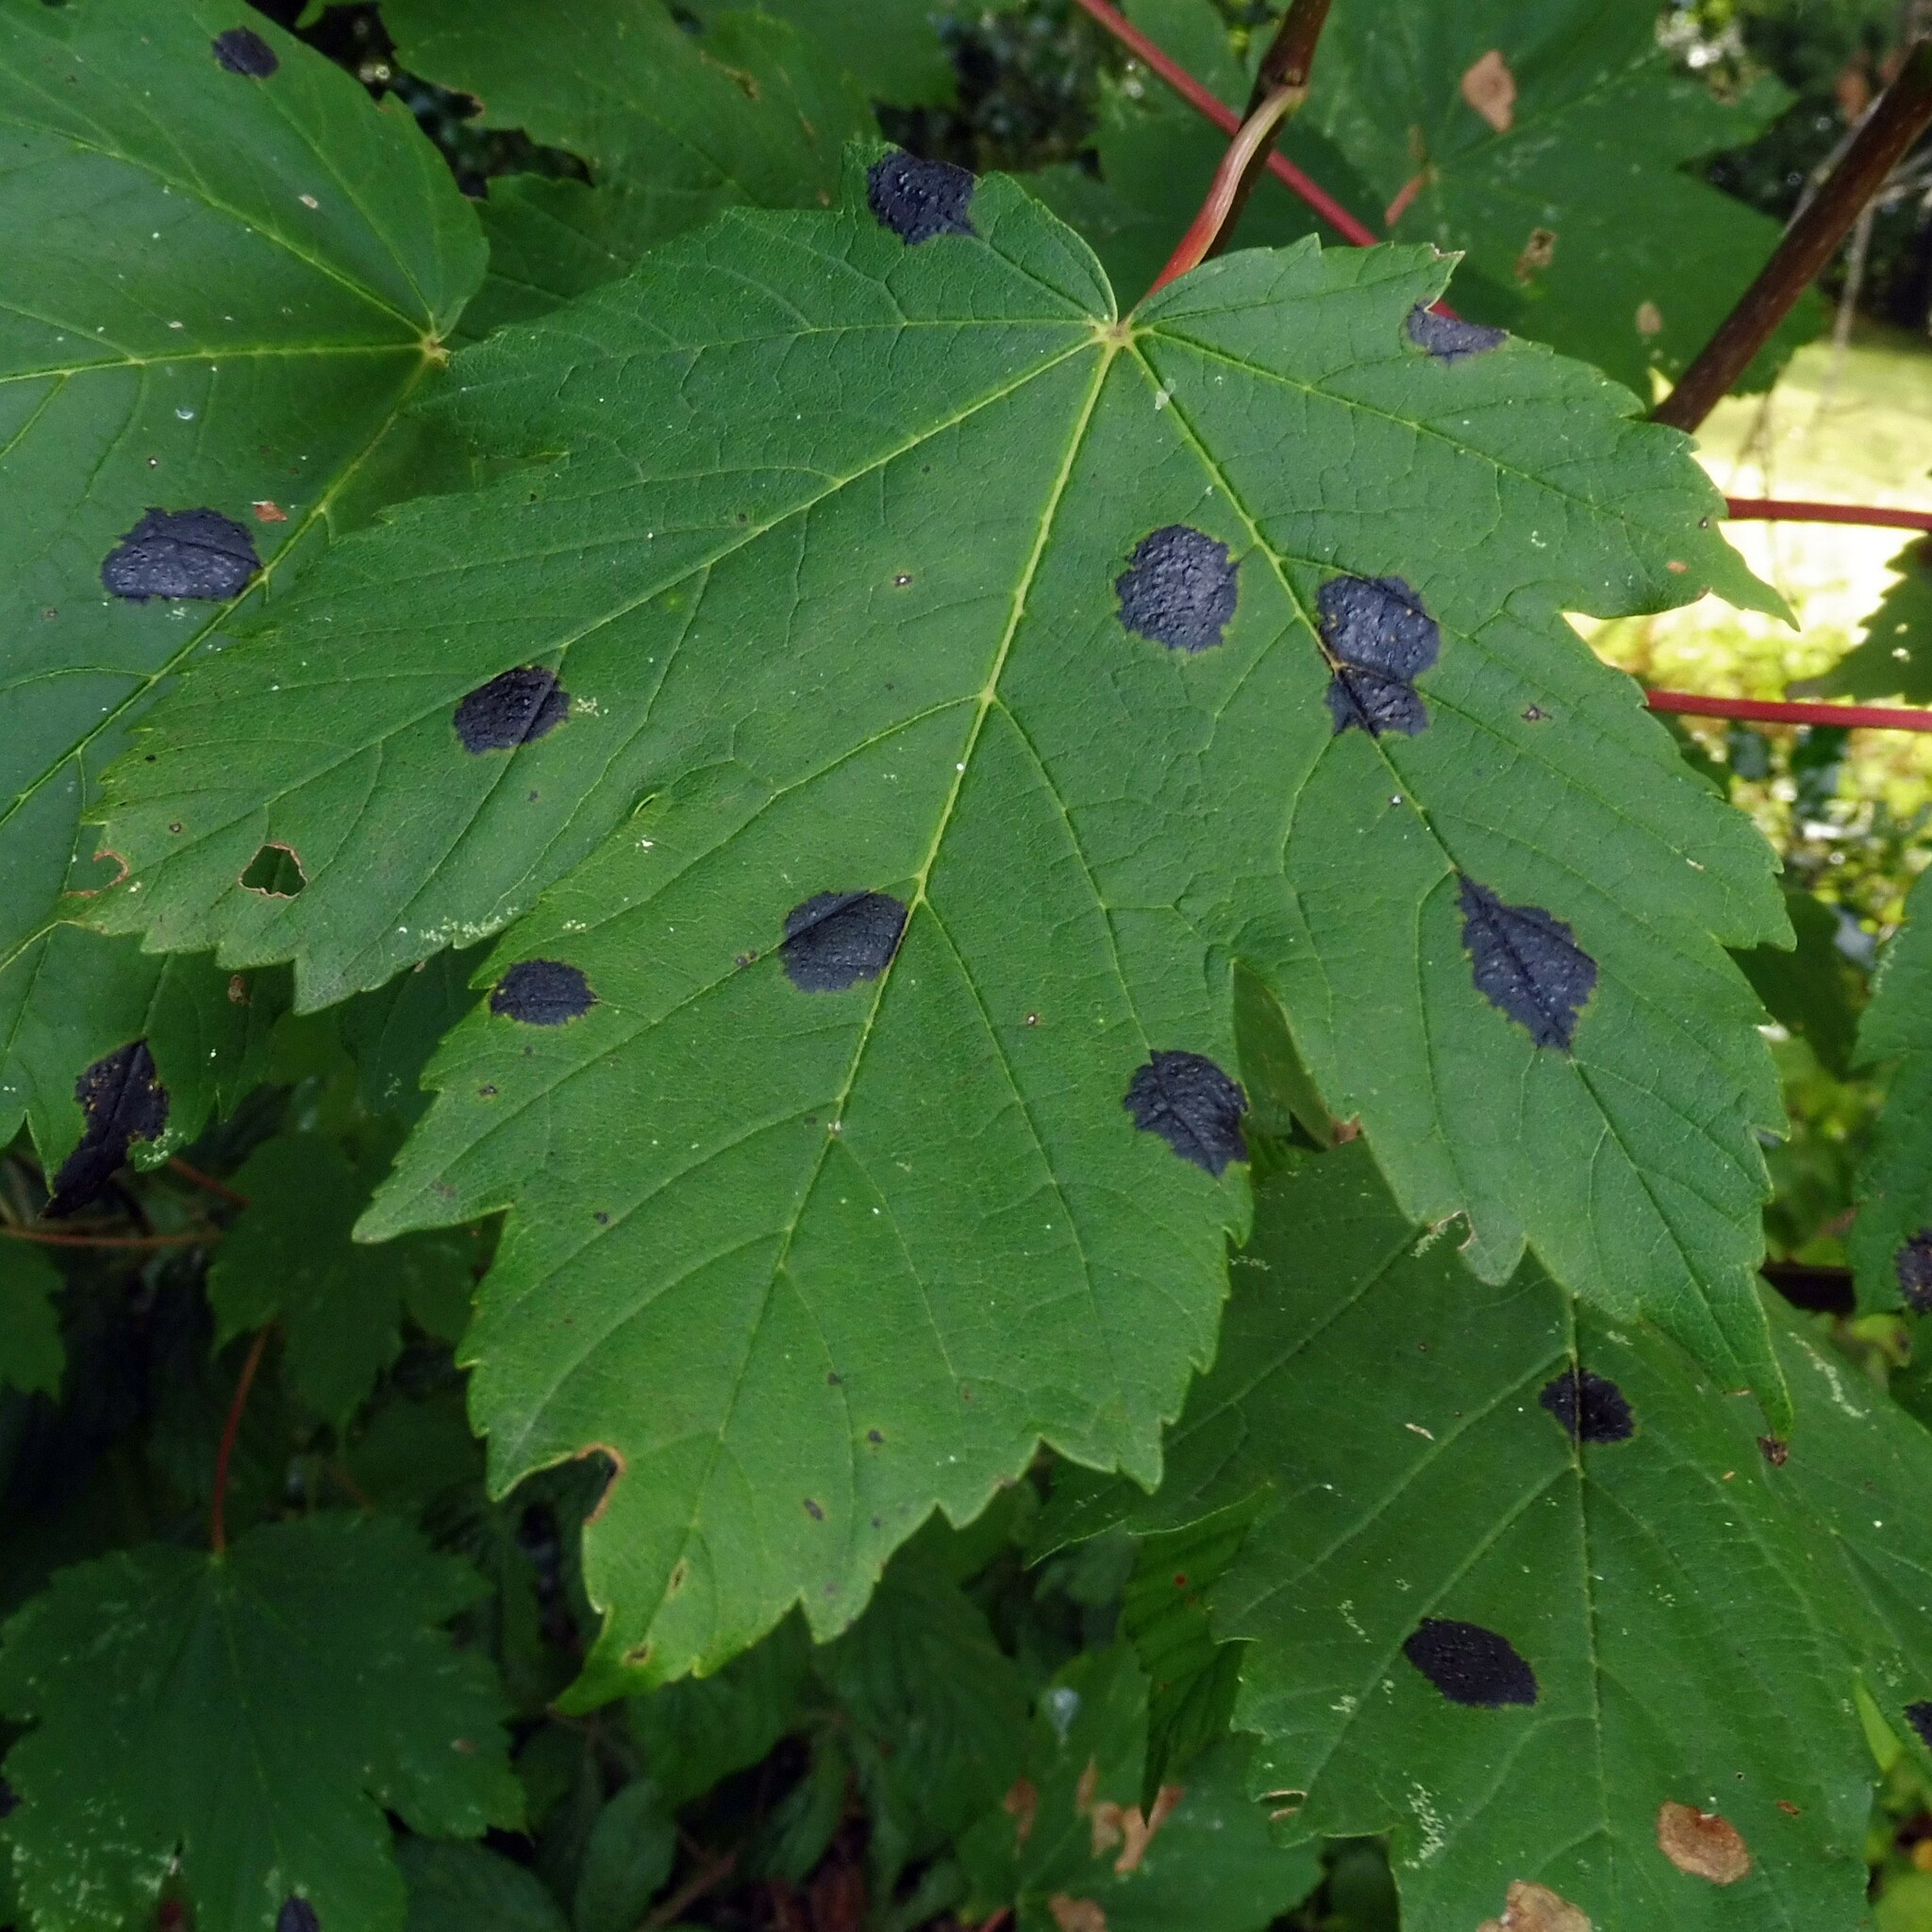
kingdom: Fungi
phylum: Ascomycota
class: Leotiomycetes
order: Rhytismatales
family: Rhytismataceae
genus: Rhytisma
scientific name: Rhytisma acerinum
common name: European tar spot
